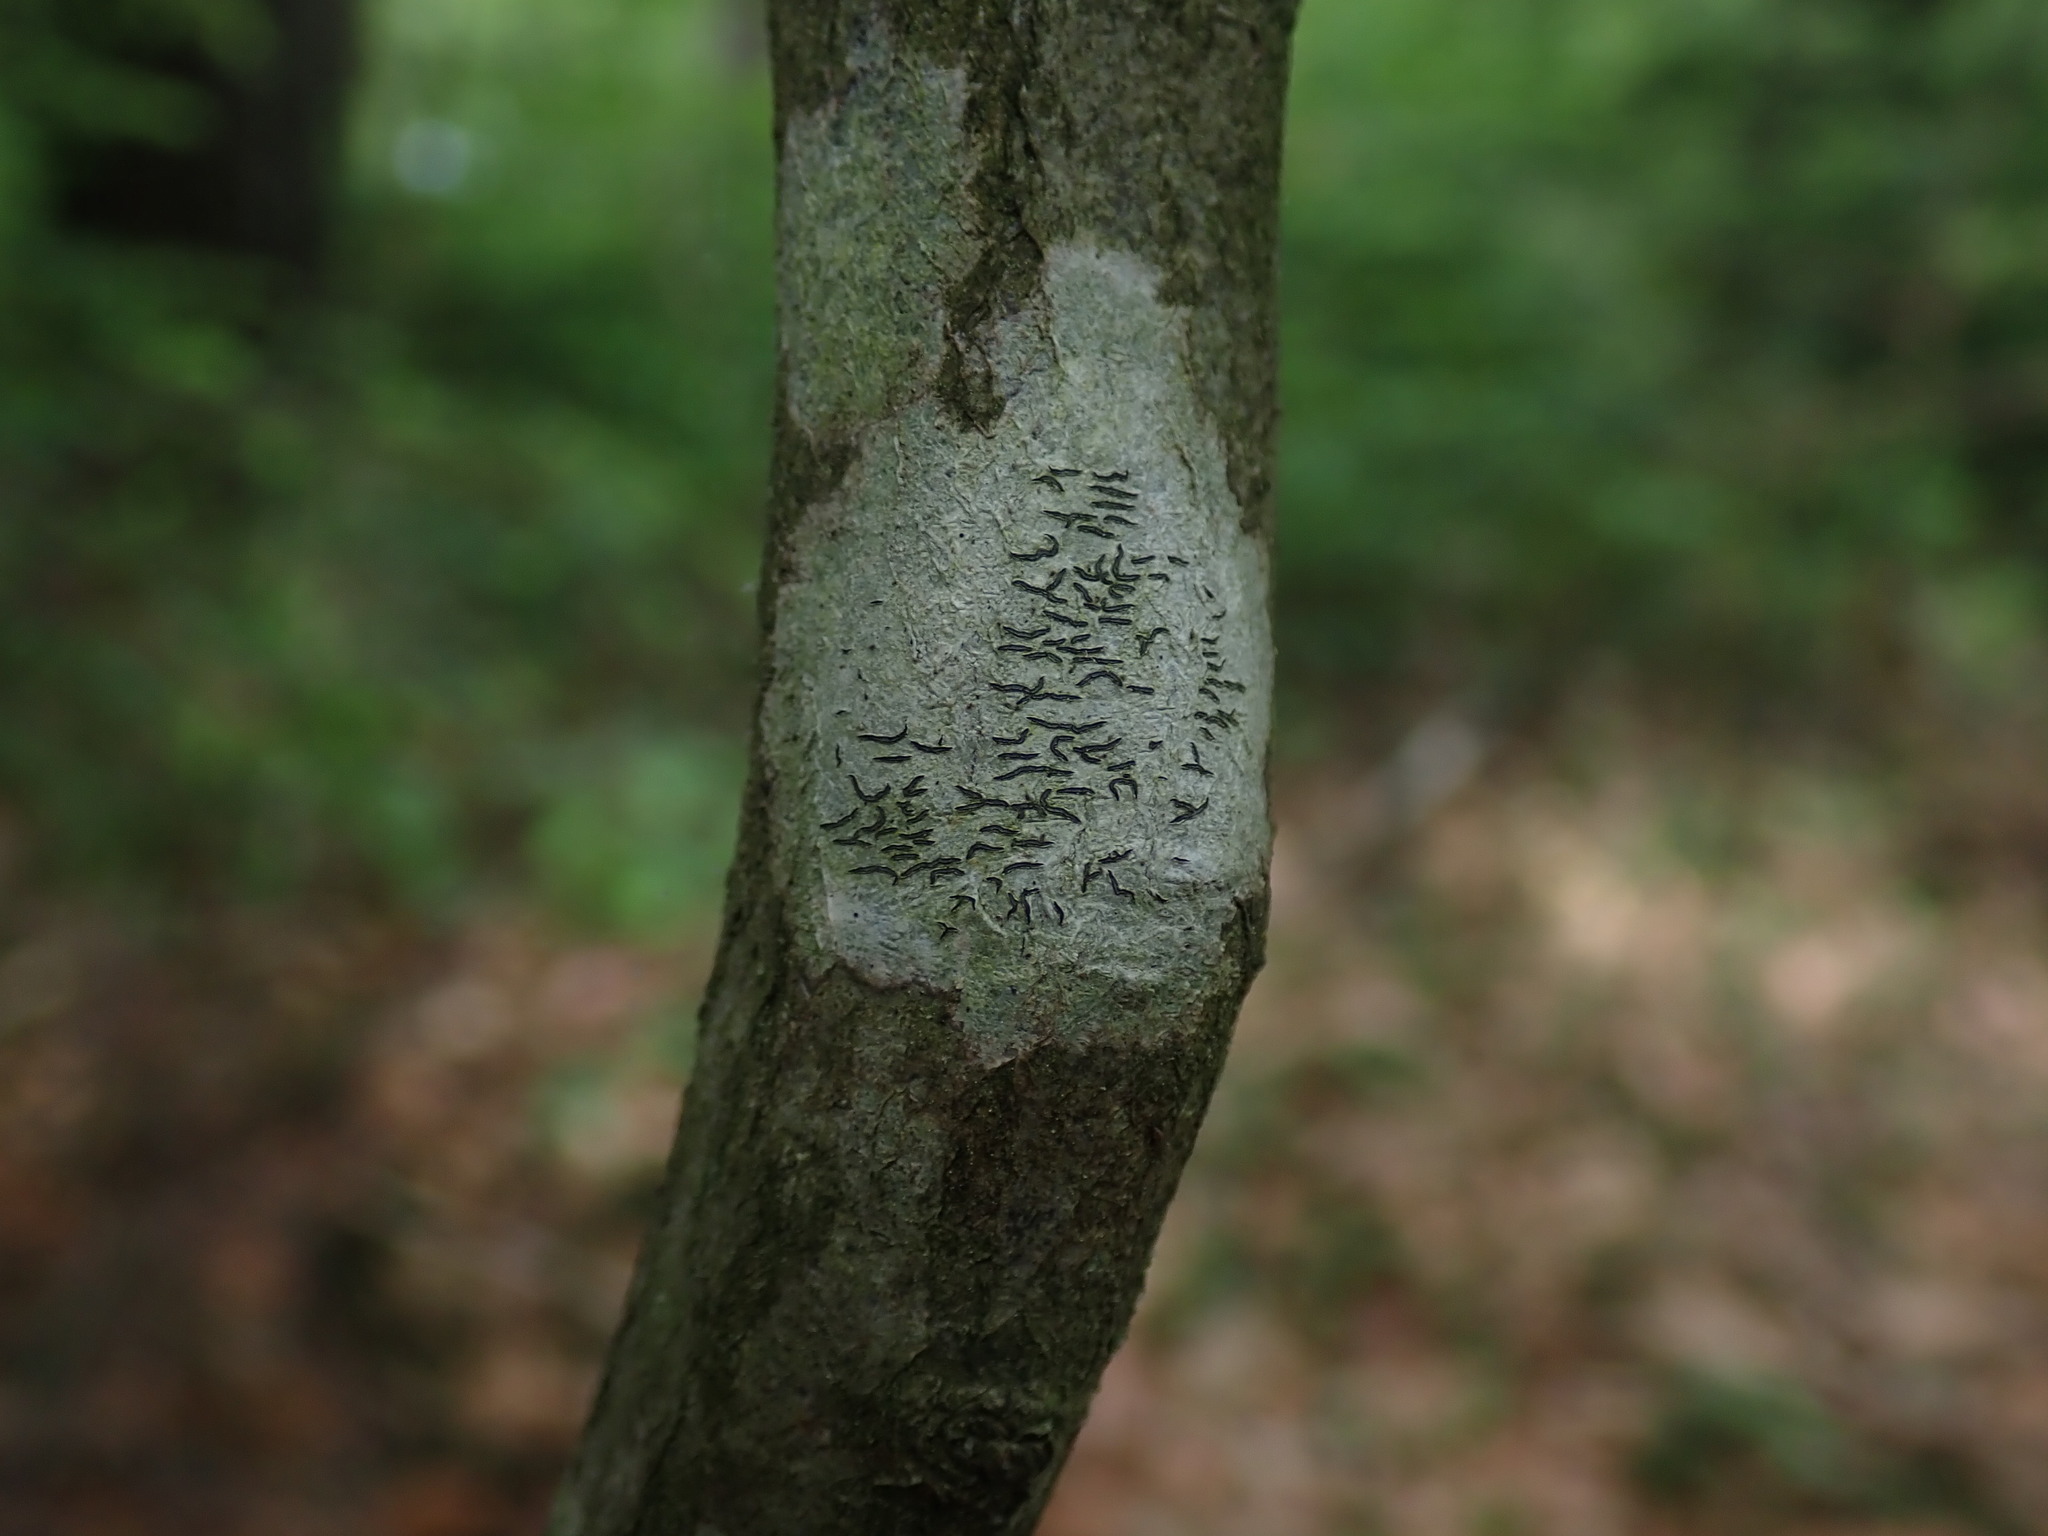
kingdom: Fungi
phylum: Ascomycota
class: Lecanoromycetes
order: Ostropales
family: Graphidaceae
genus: Graphis
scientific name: Graphis scripta
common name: Script lichen
